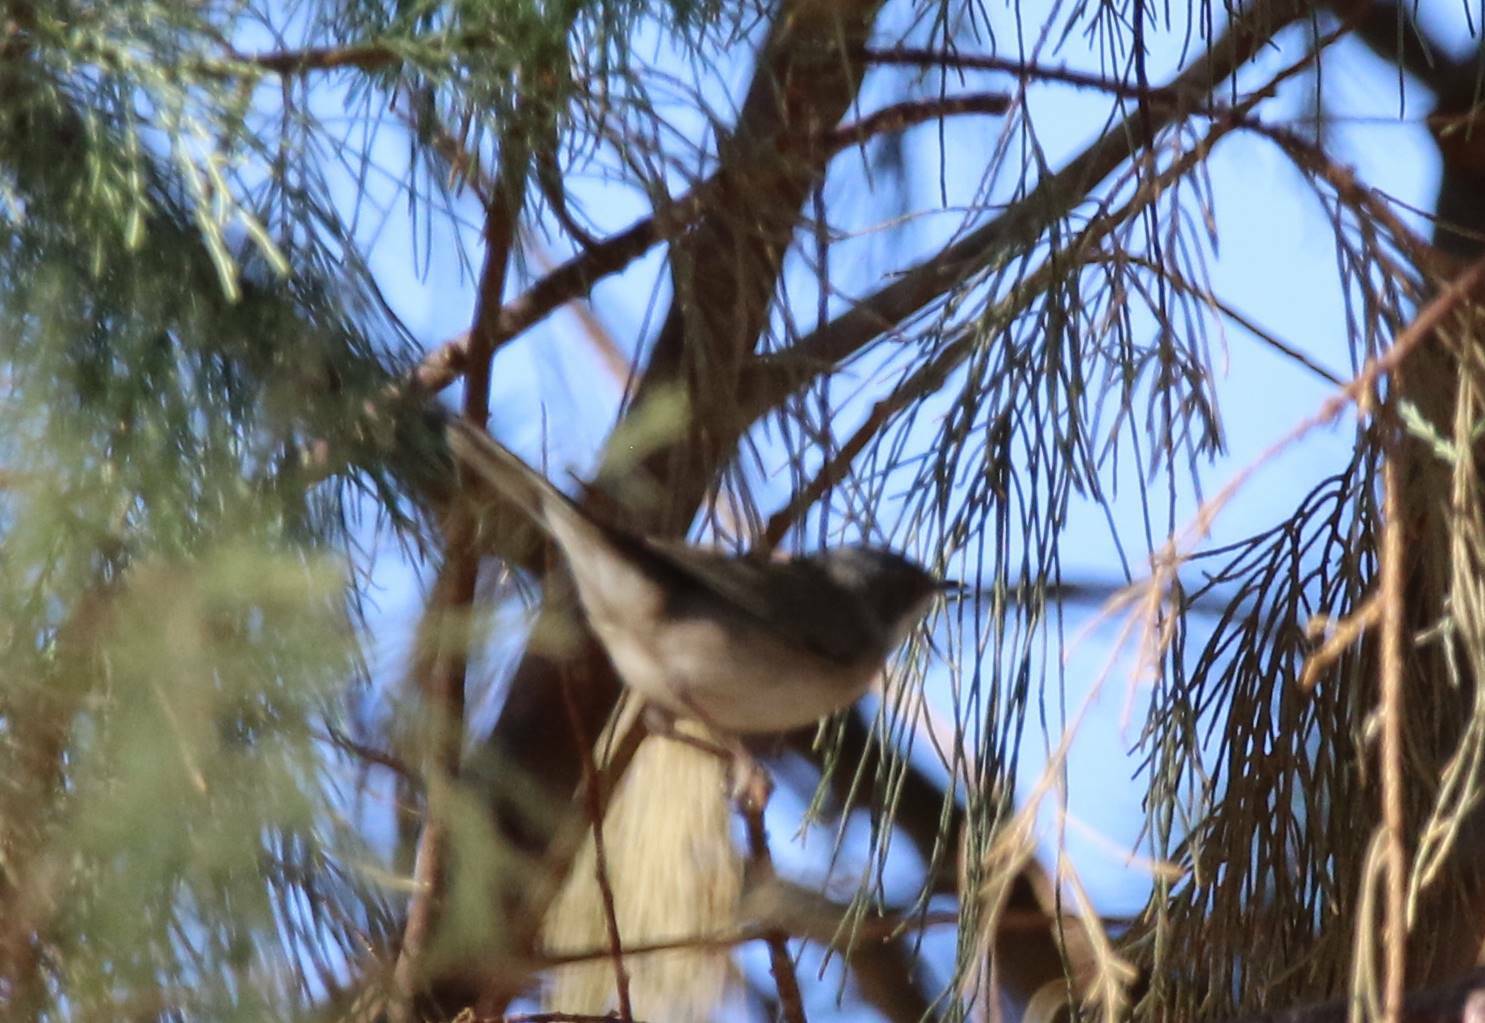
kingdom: Animalia
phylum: Chordata
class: Aves
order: Passeriformes
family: Sylviidae
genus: Curruca
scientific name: Curruca melanocephala
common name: Sardinian warbler
